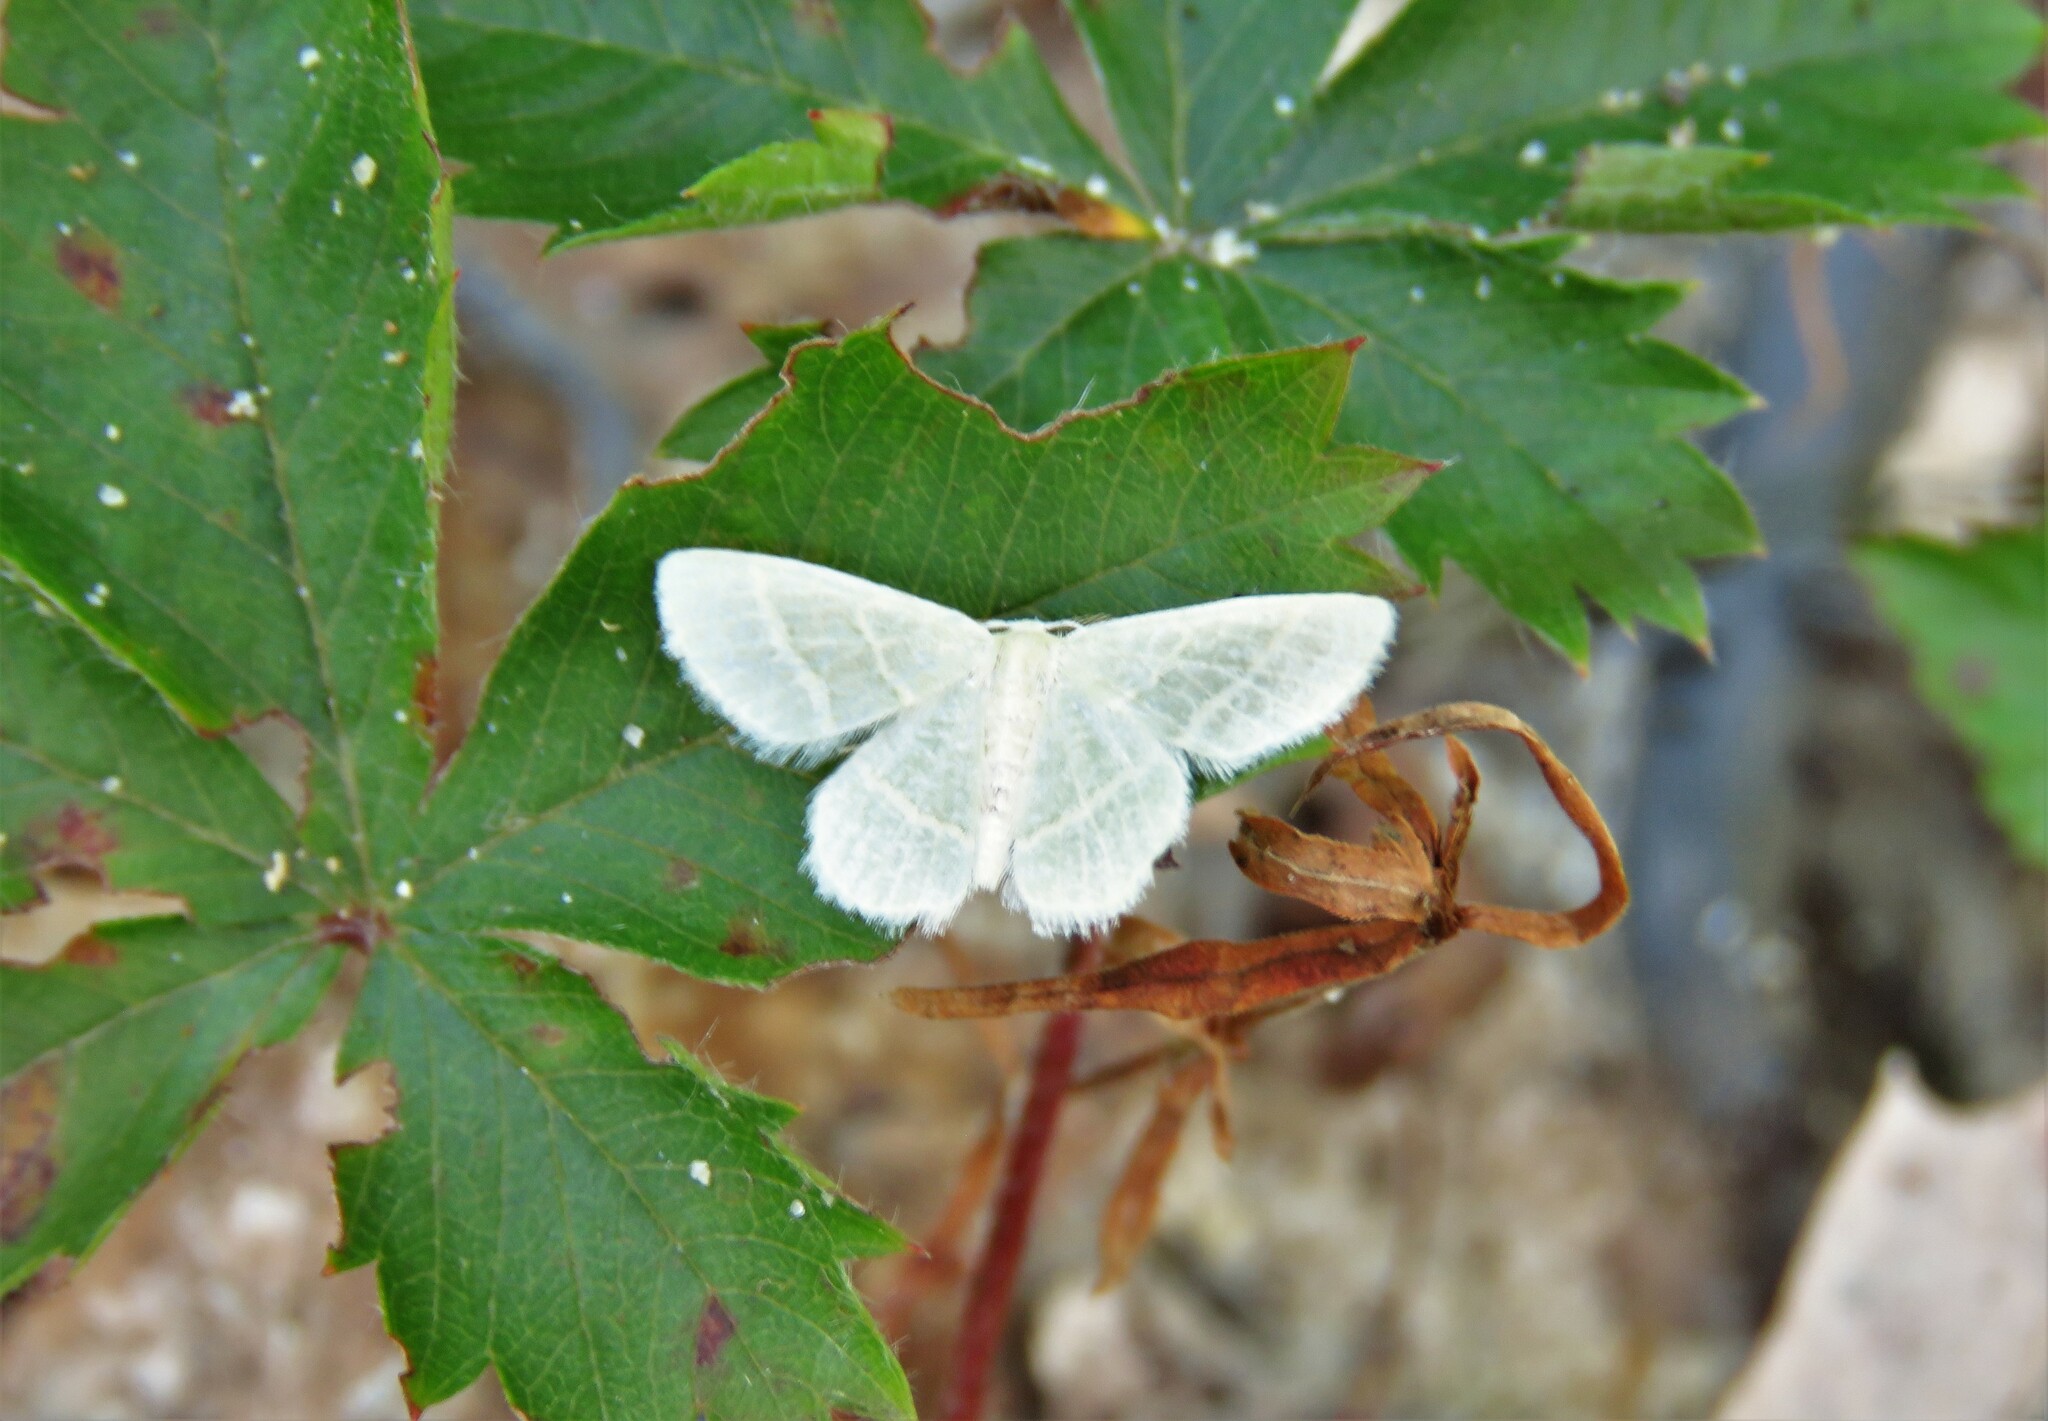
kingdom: Animalia
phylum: Arthropoda
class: Insecta
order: Lepidoptera
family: Geometridae
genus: Chlorochlamys
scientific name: Chlorochlamys chloroleucaria
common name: Blackberry looper
